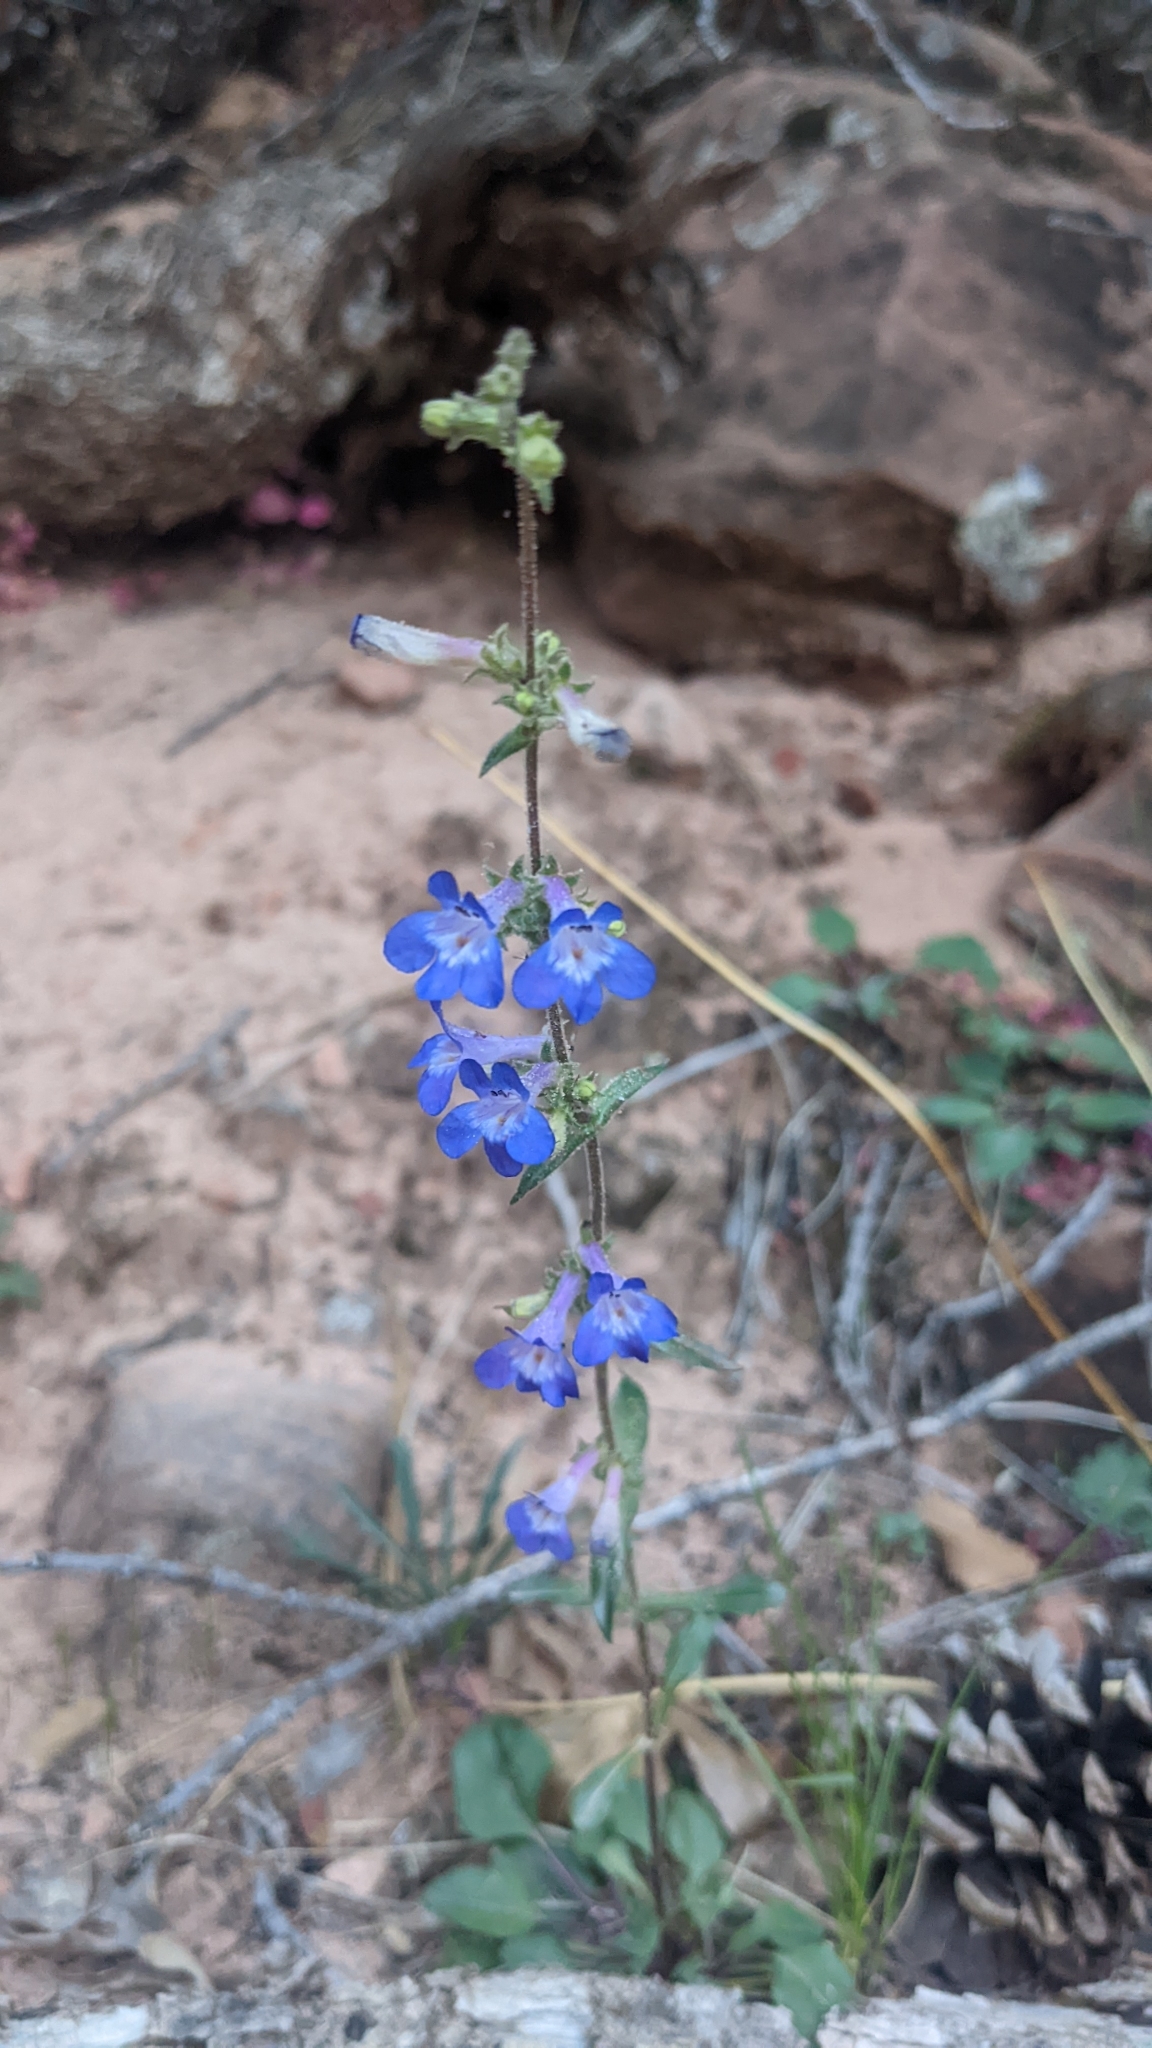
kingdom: Plantae
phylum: Tracheophyta
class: Magnoliopsida
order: Lamiales
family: Plantaginaceae
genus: Penstemon
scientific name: Penstemon humilis
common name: Low penstemon
